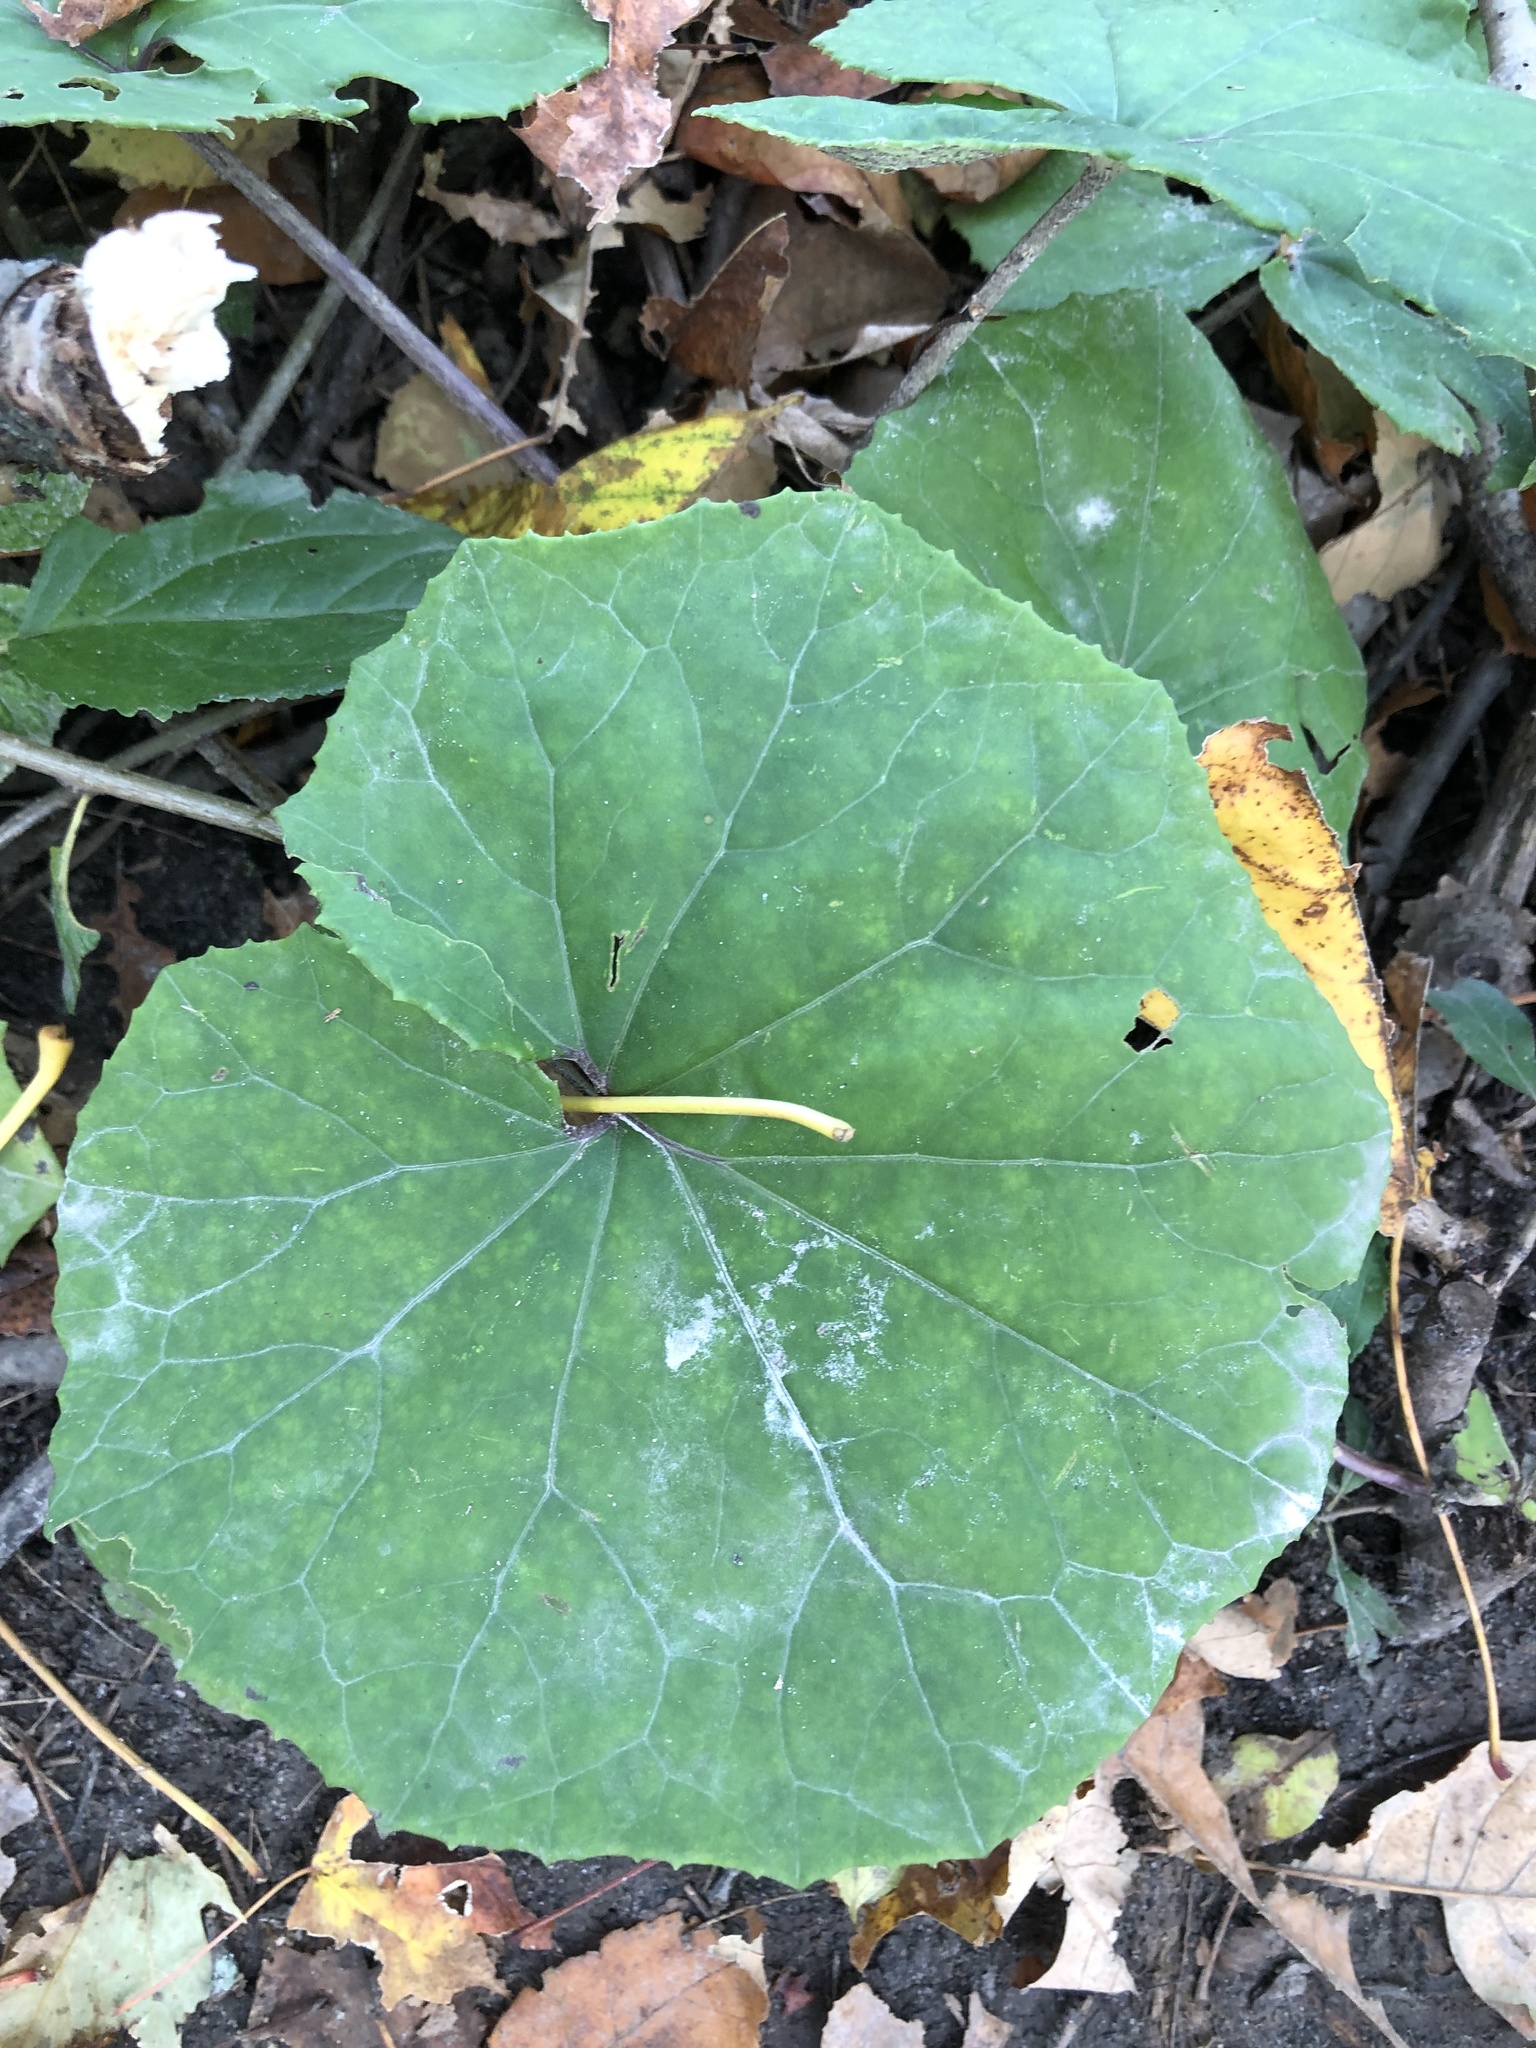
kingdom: Plantae
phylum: Tracheophyta
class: Magnoliopsida
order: Asterales
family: Asteraceae
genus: Tussilago
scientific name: Tussilago farfara
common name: Coltsfoot
